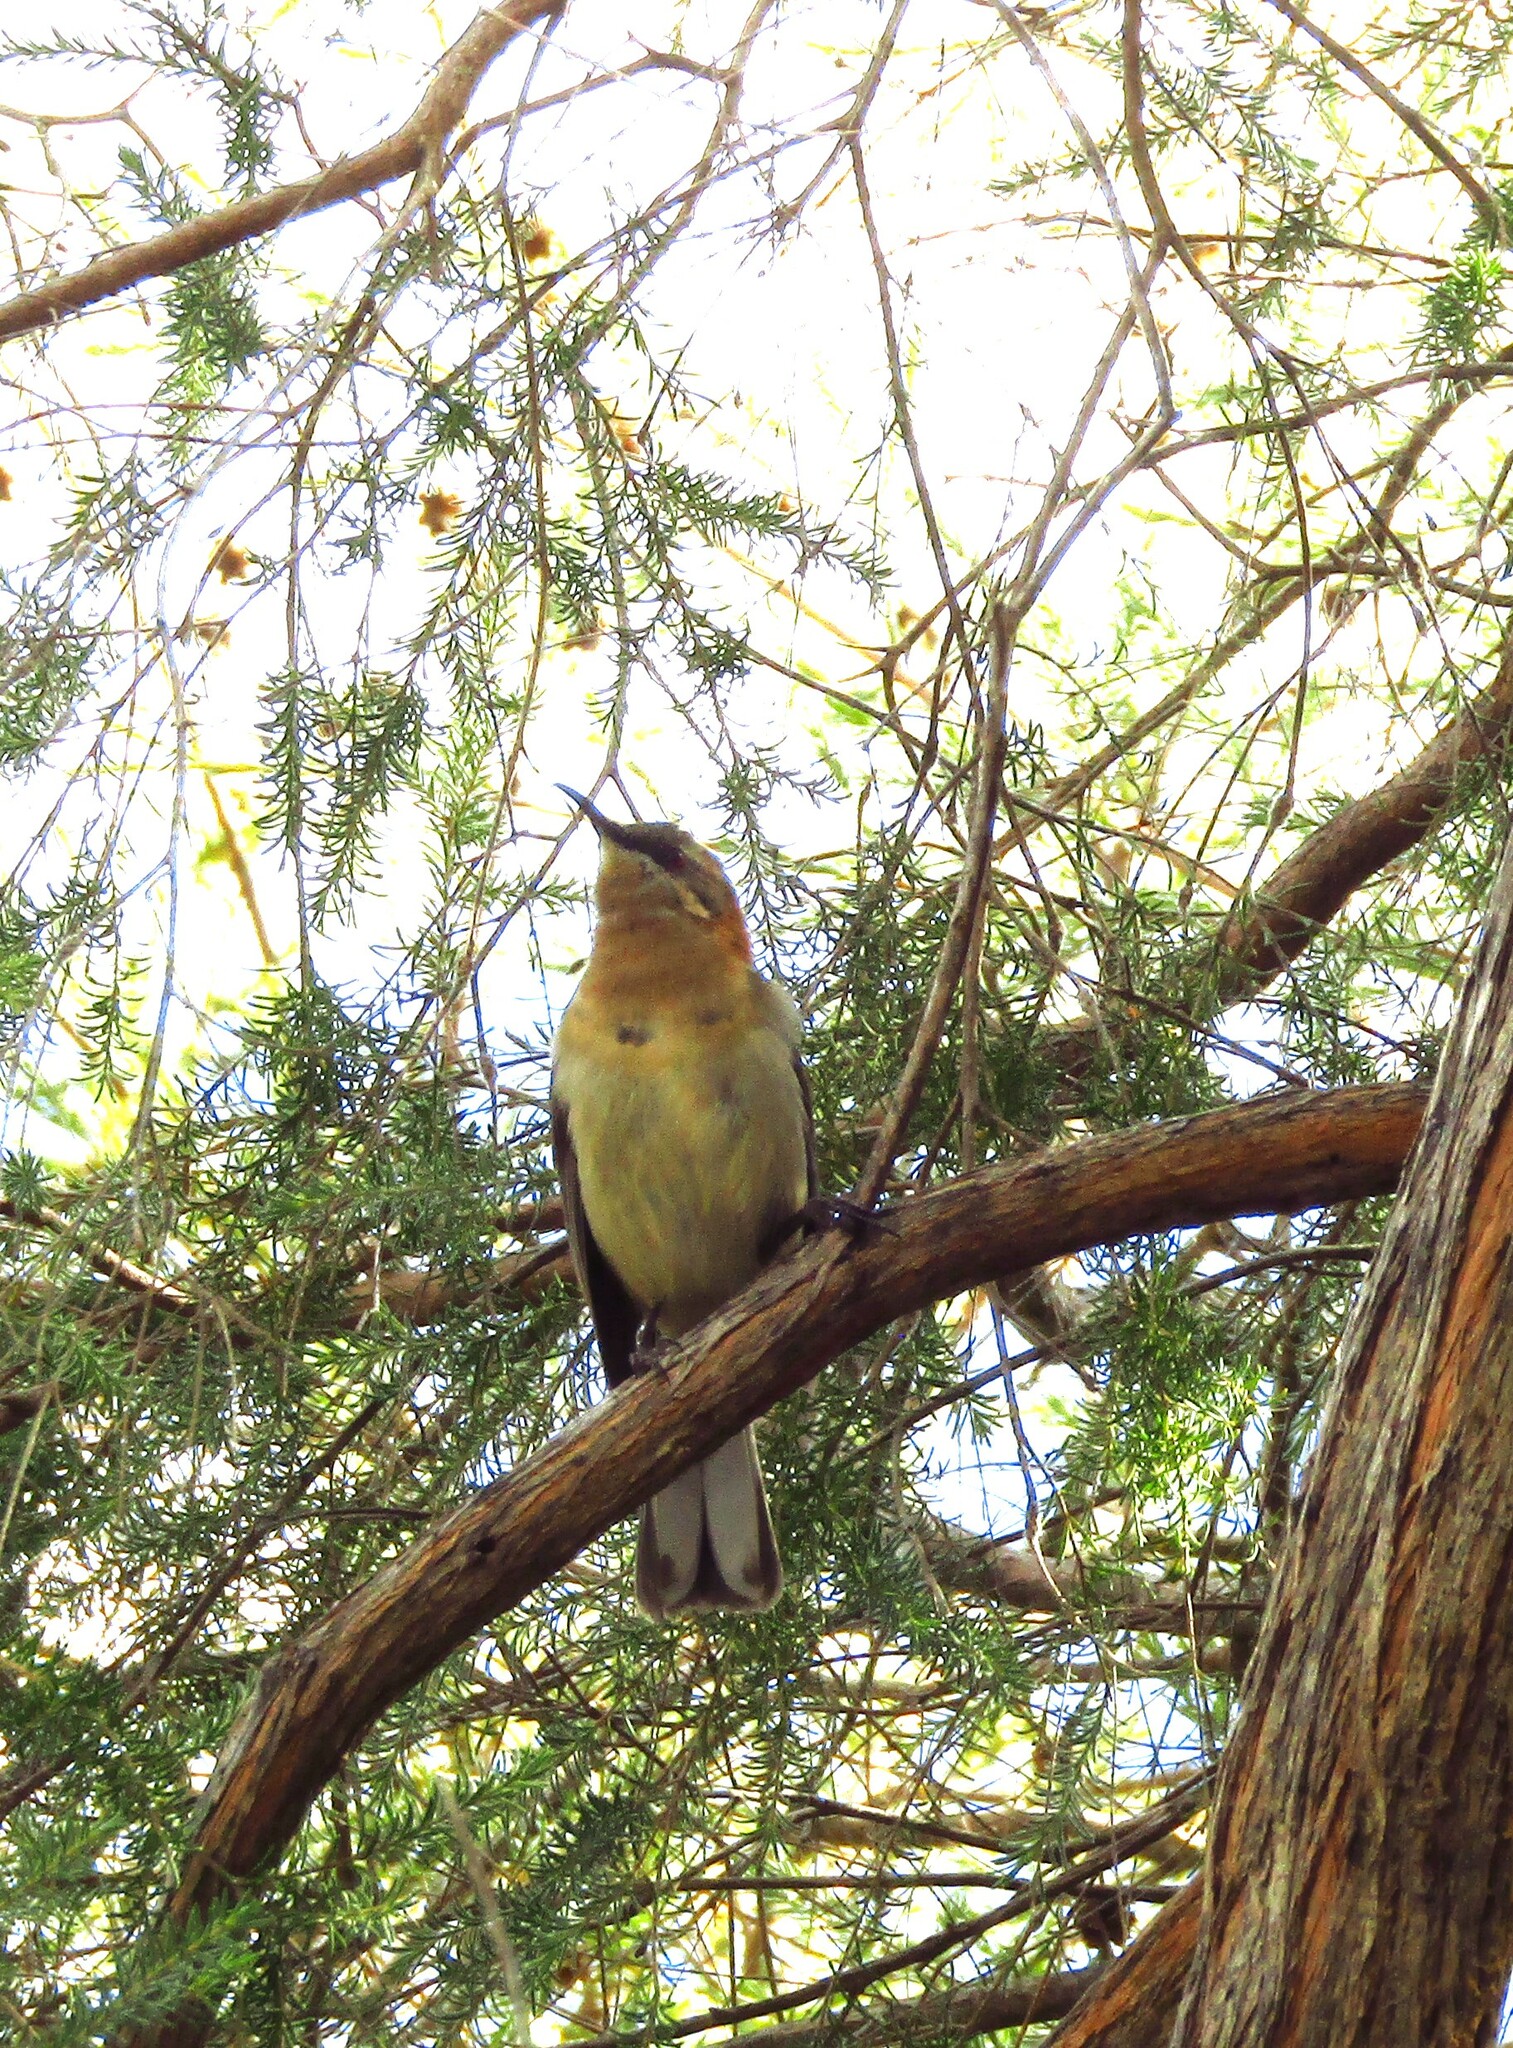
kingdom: Animalia
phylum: Chordata
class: Aves
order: Passeriformes
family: Meliphagidae
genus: Acanthorhynchus
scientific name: Acanthorhynchus superciliosus
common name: Western spinebill
